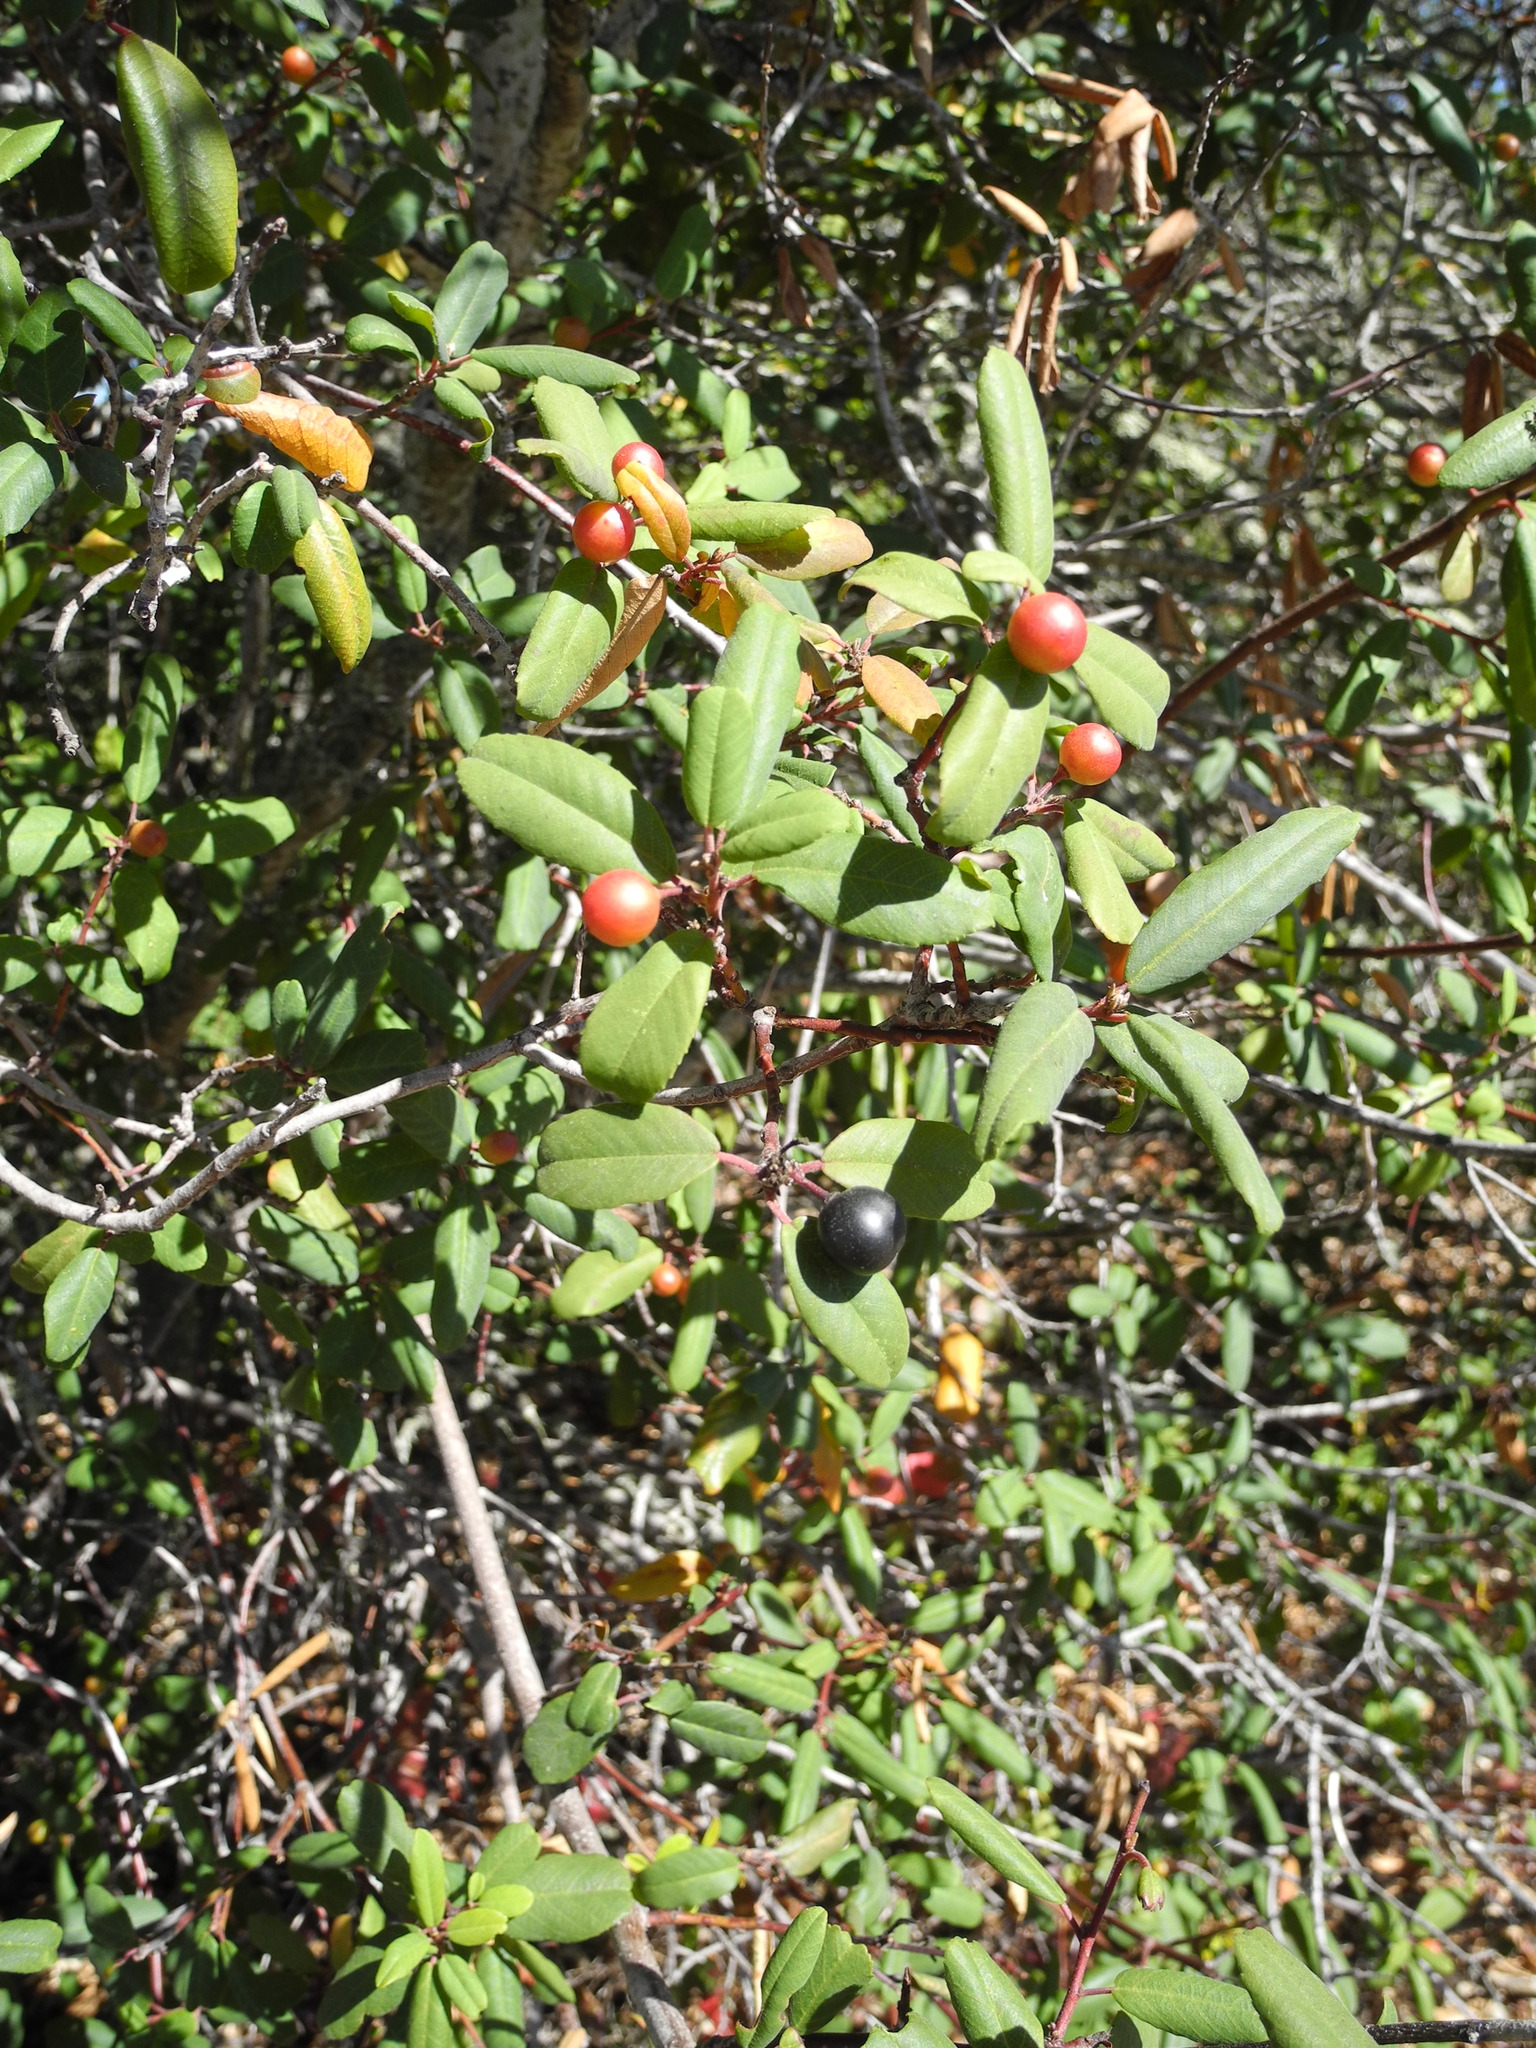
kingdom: Plantae
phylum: Tracheophyta
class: Magnoliopsida
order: Rosales
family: Rhamnaceae
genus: Frangula
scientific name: Frangula californica
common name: California buckthorn
